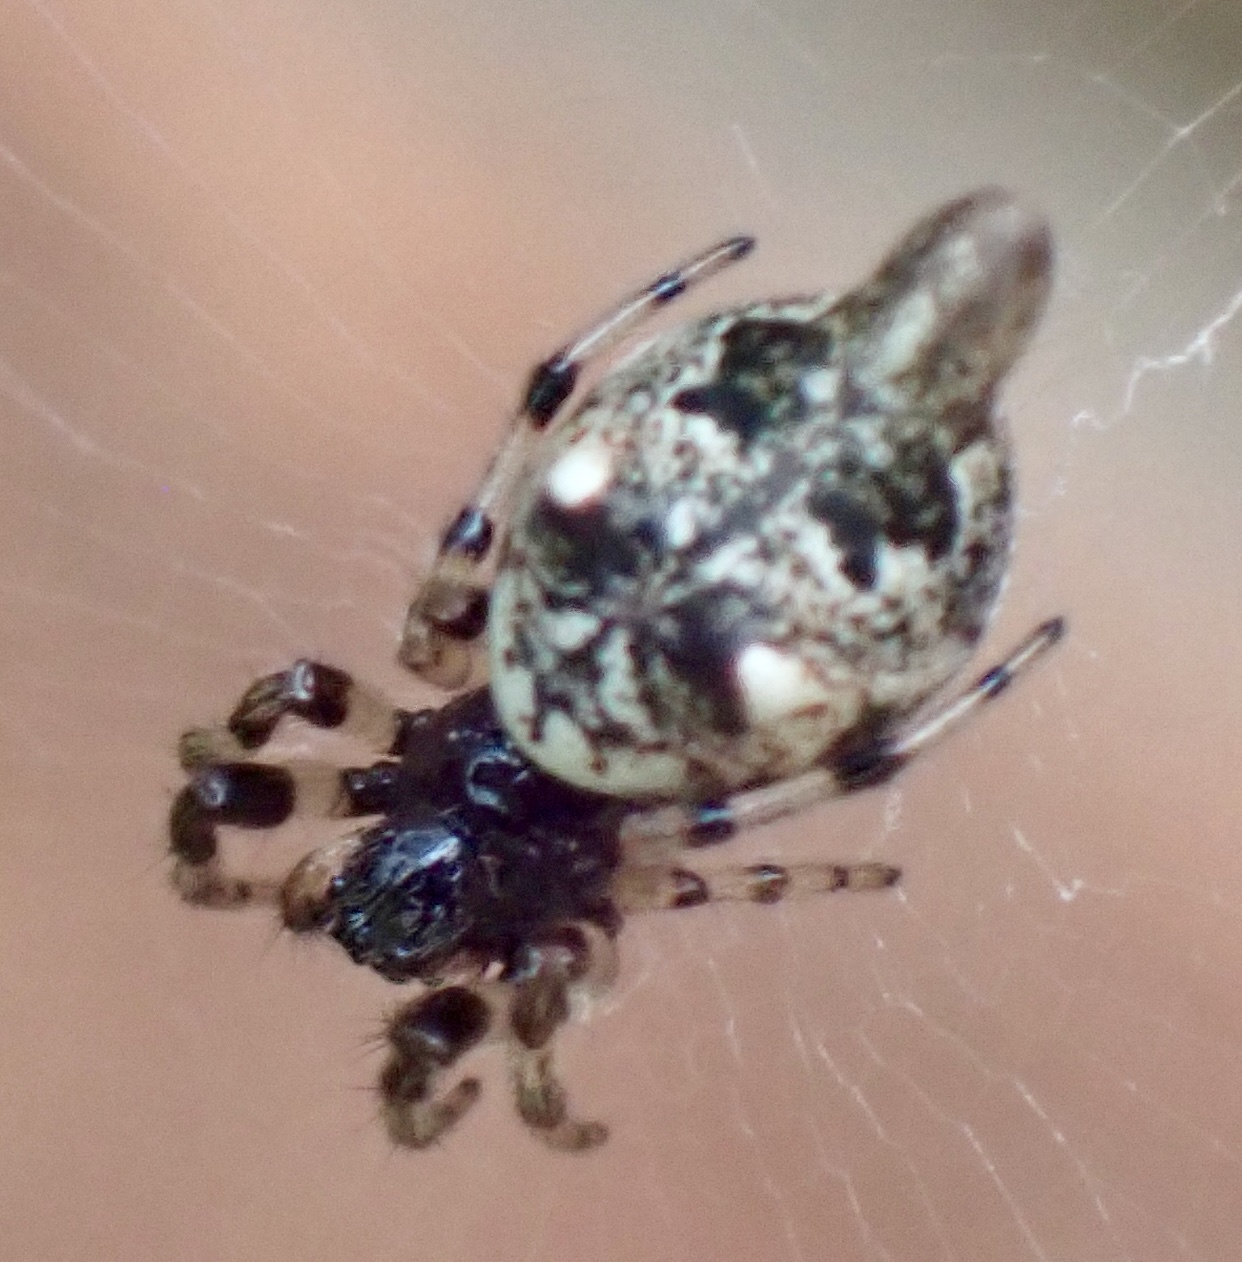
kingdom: Animalia
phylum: Arthropoda
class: Arachnida
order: Araneae
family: Araneidae
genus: Cyclosa
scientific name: Cyclosa turbinata
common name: Orb weavers
